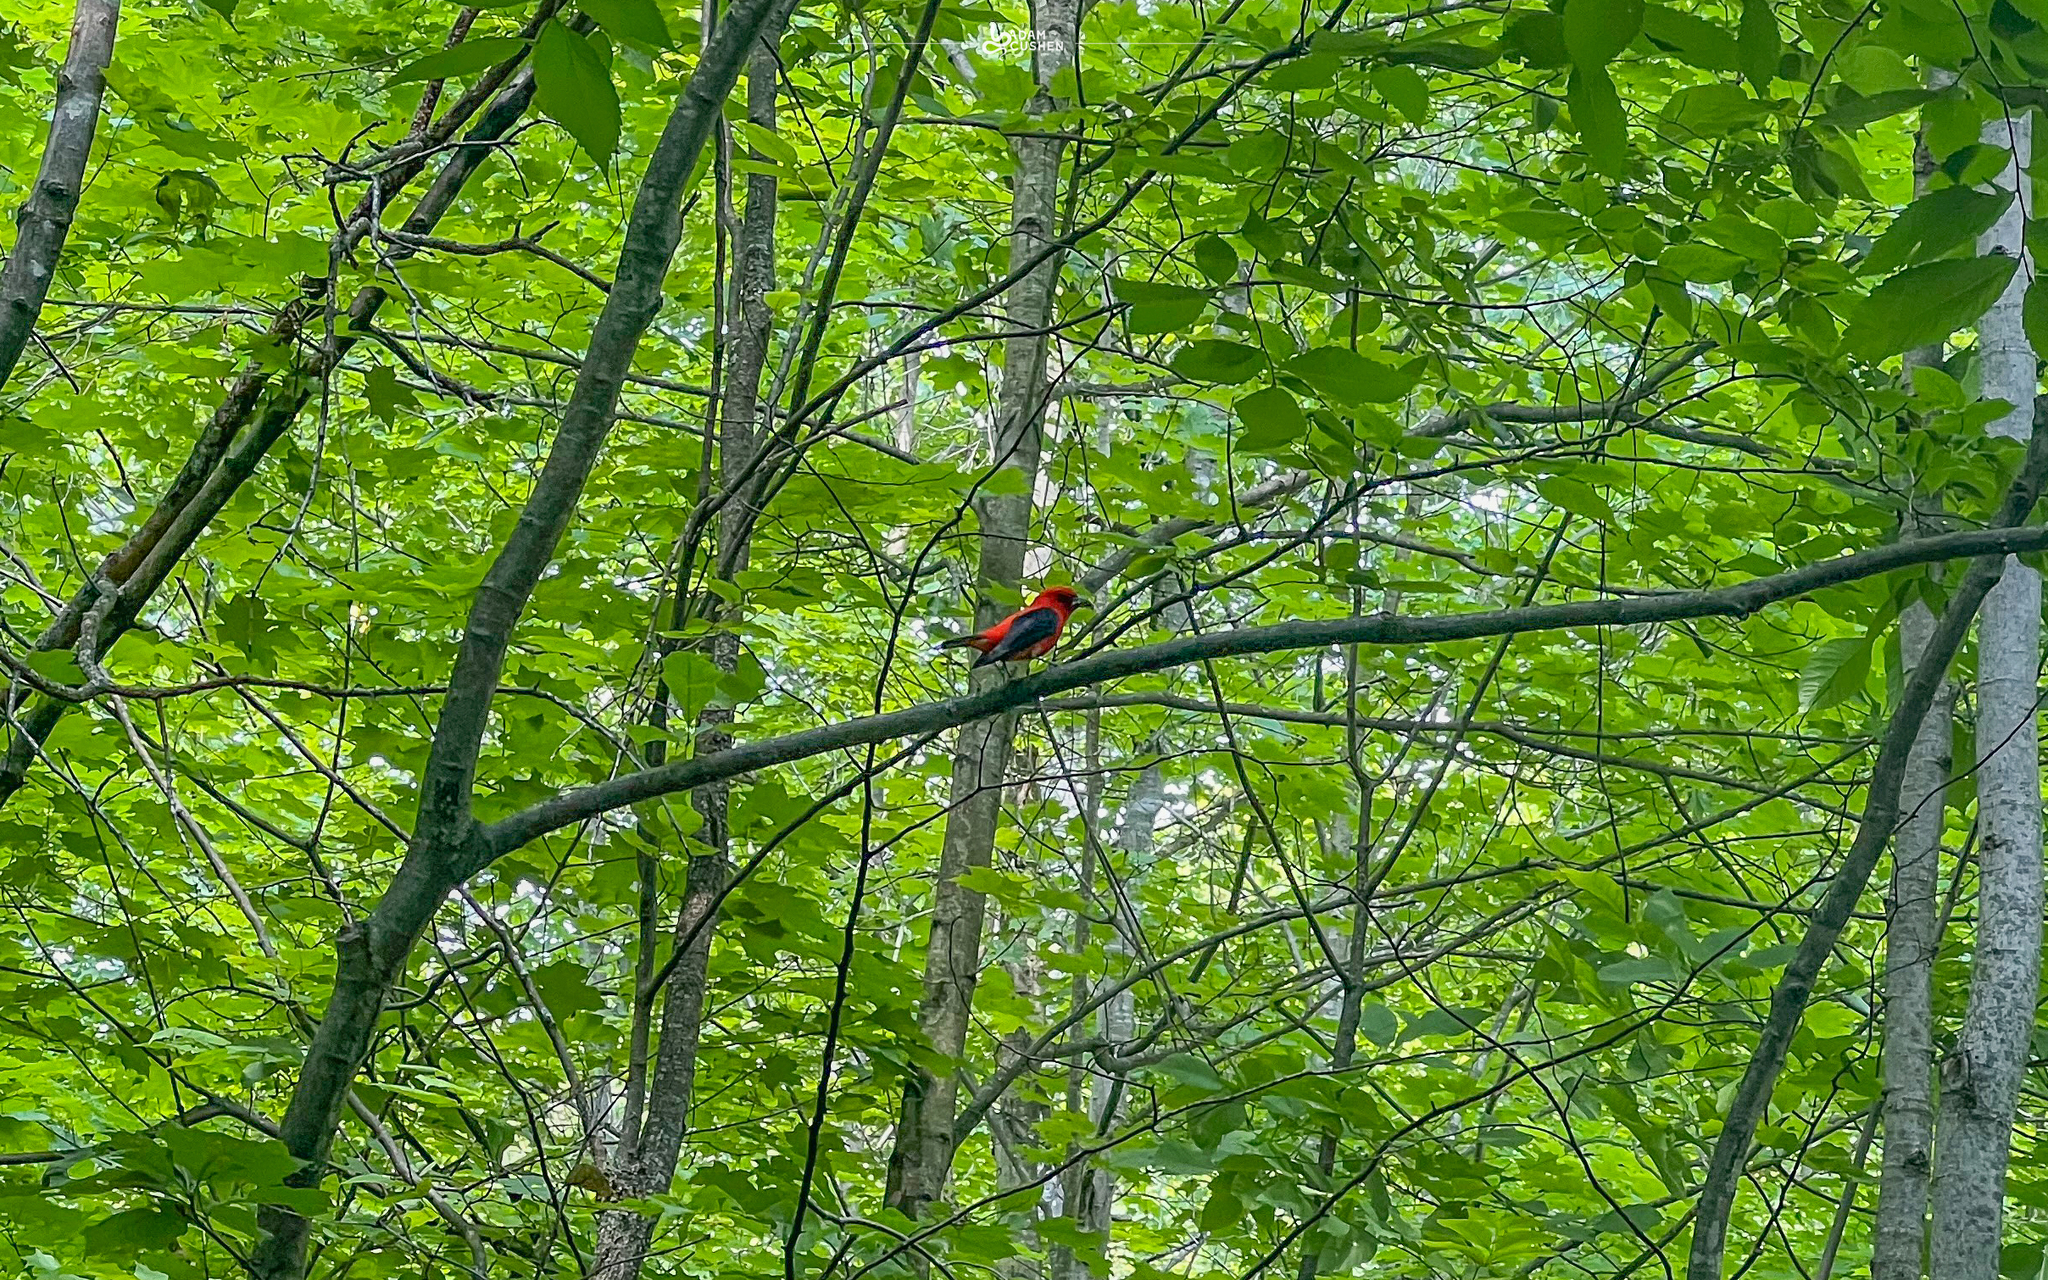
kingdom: Animalia
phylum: Chordata
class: Aves
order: Passeriformes
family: Cardinalidae
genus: Piranga
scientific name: Piranga olivacea
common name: Scarlet tanager
